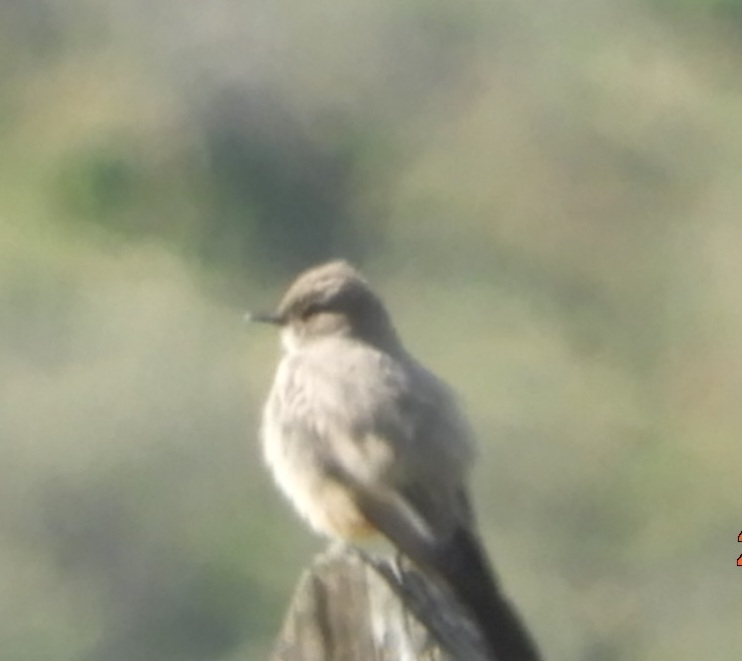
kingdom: Animalia
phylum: Chordata
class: Aves
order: Passeriformes
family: Tyrannidae
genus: Sayornis
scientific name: Sayornis saya
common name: Say's phoebe
